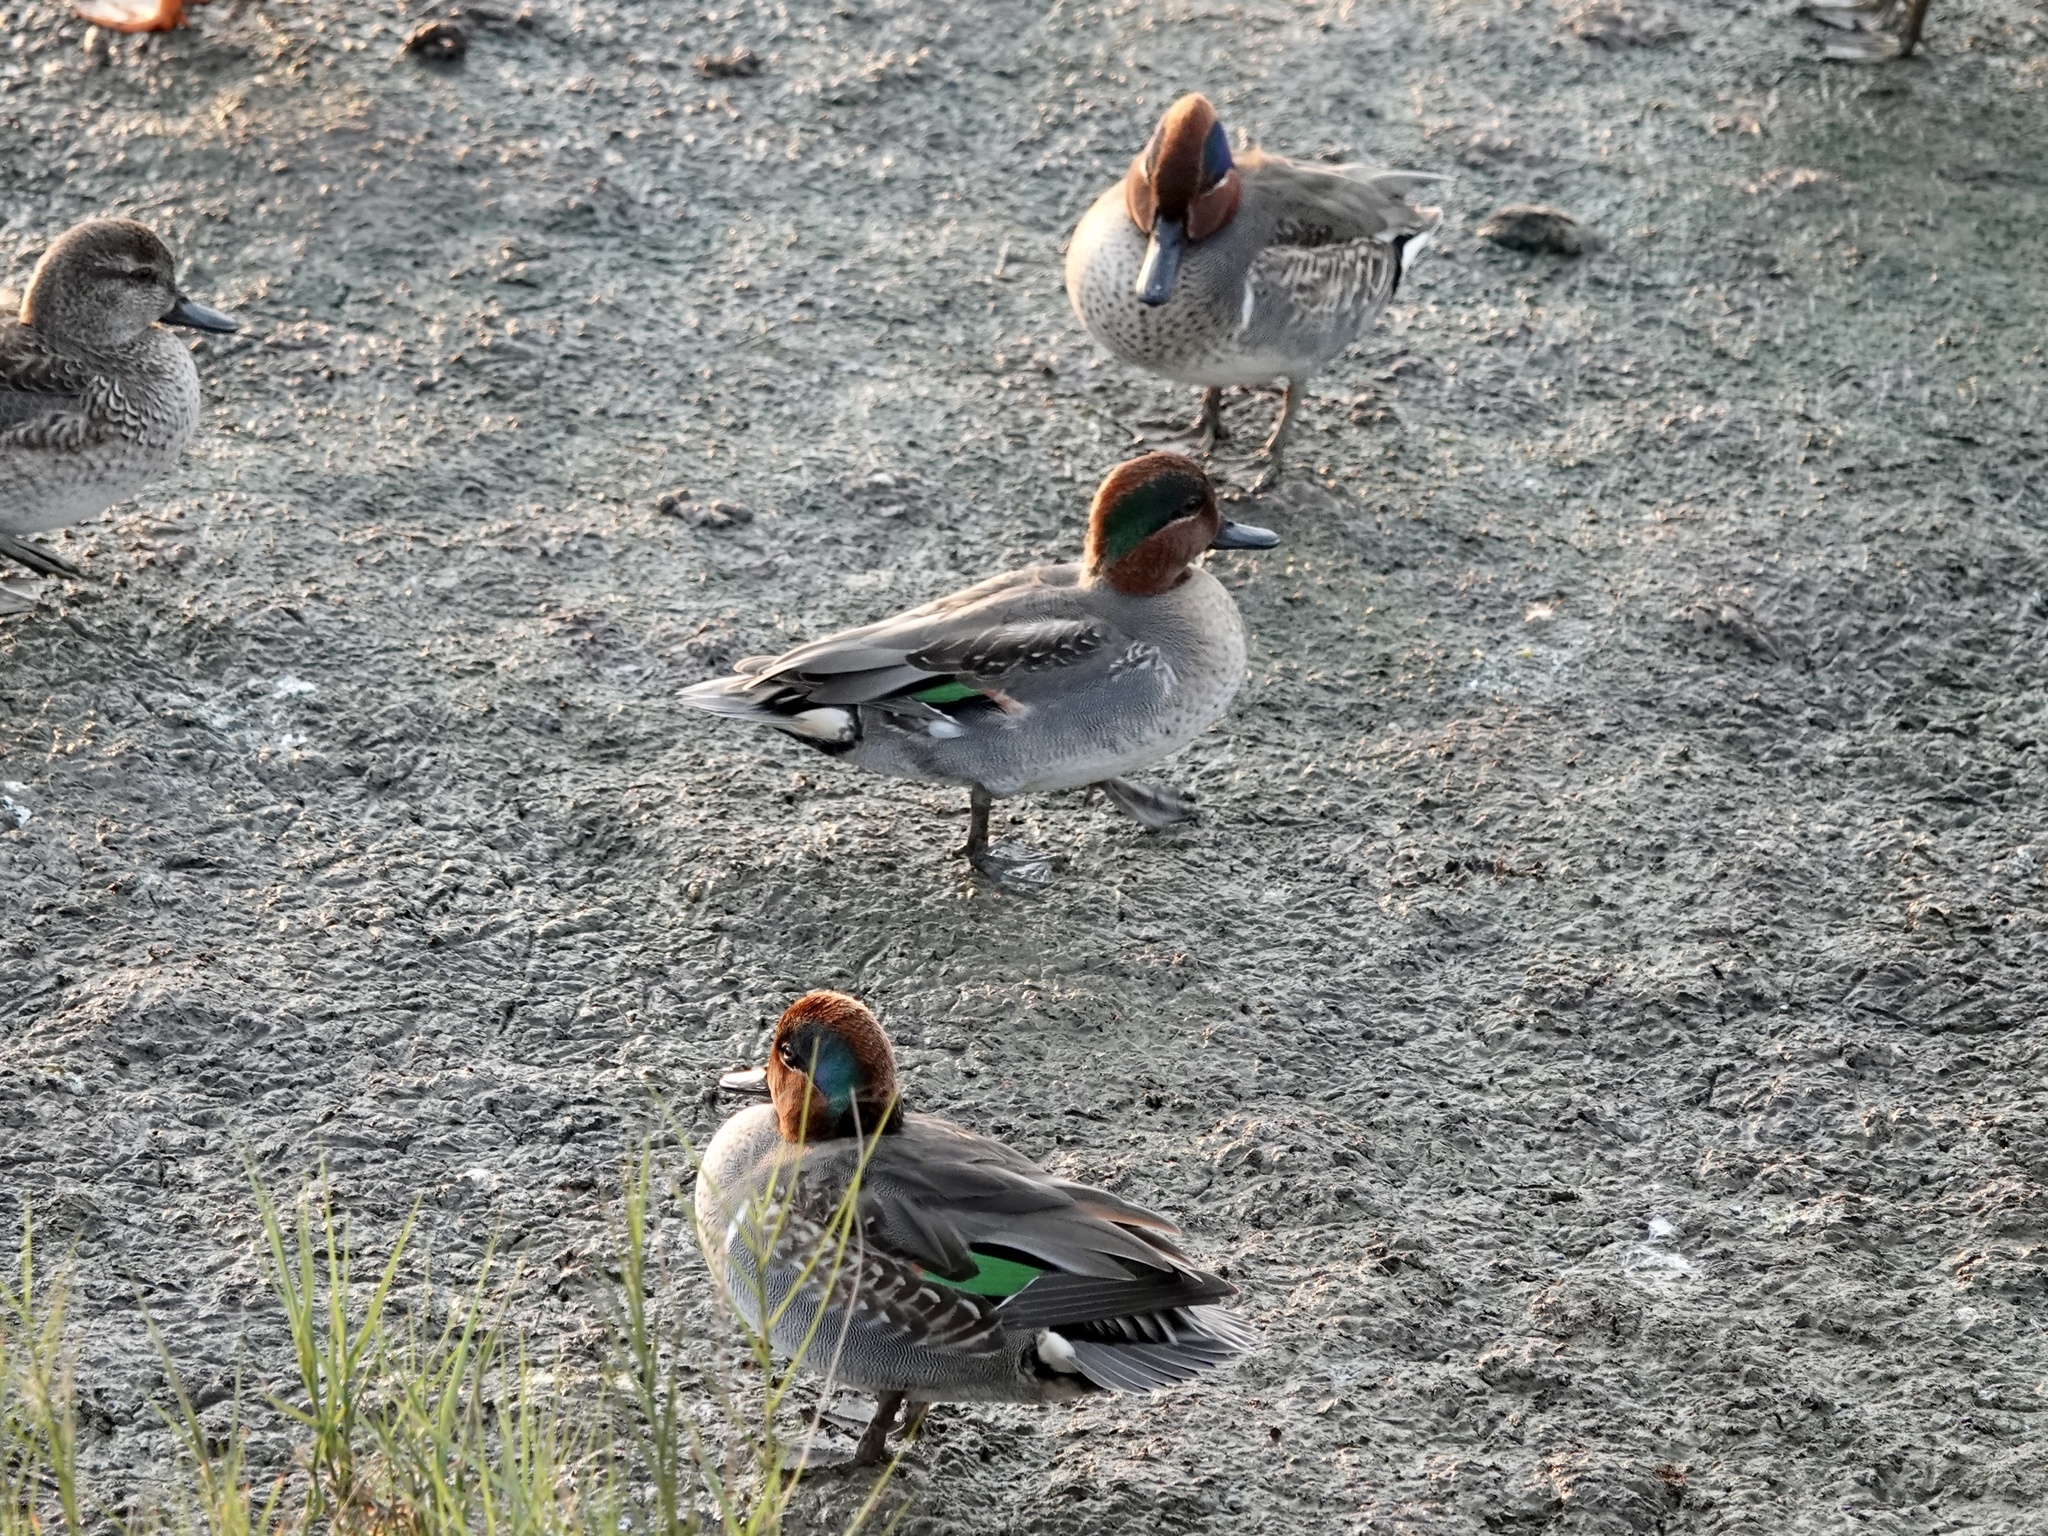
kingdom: Animalia
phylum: Chordata
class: Aves
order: Anseriformes
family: Anatidae
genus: Anas
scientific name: Anas crecca
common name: Eurasian teal
